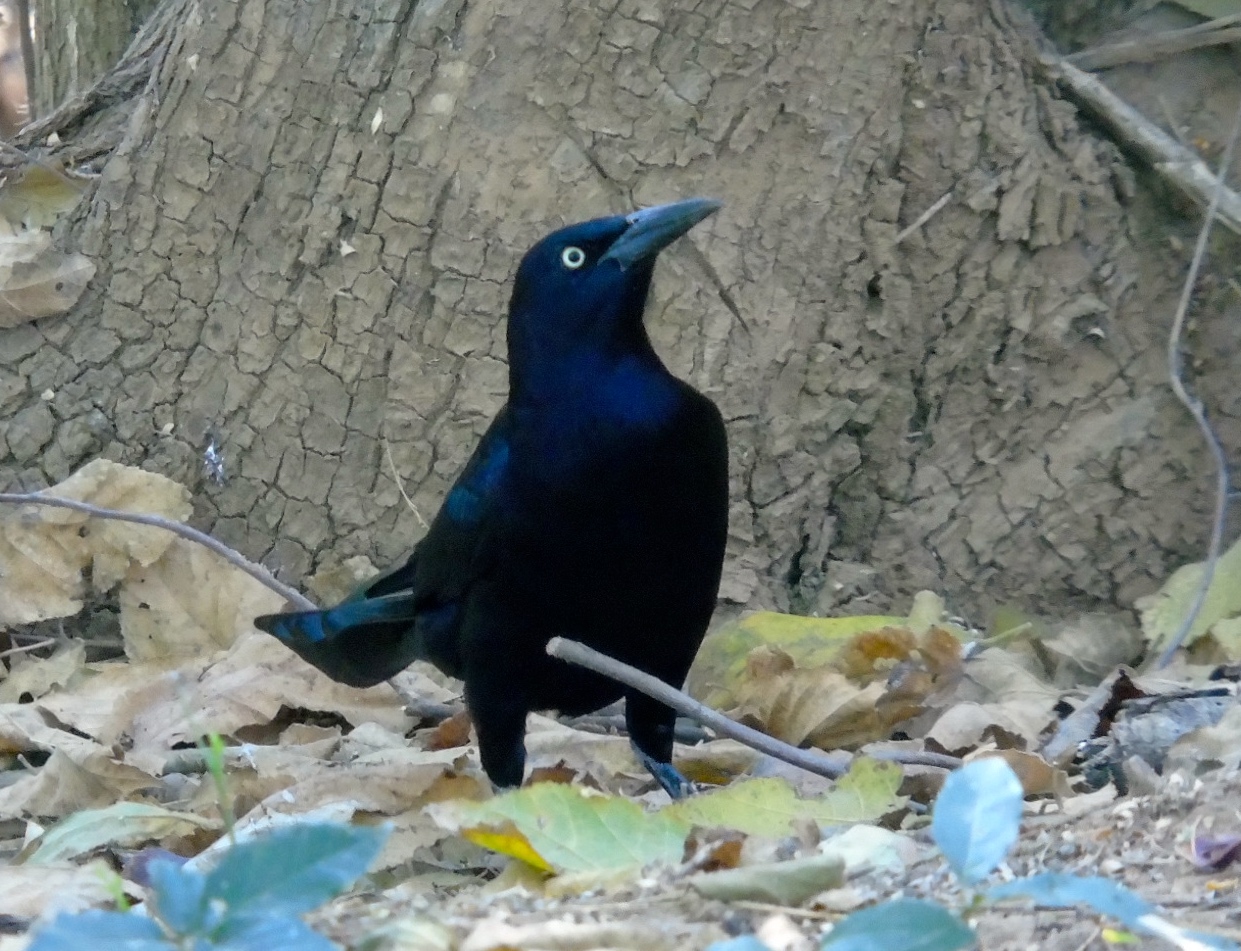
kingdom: Animalia
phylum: Chordata
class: Aves
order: Passeriformes
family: Icteridae
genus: Quiscalus
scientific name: Quiscalus mexicanus
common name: Great-tailed grackle
